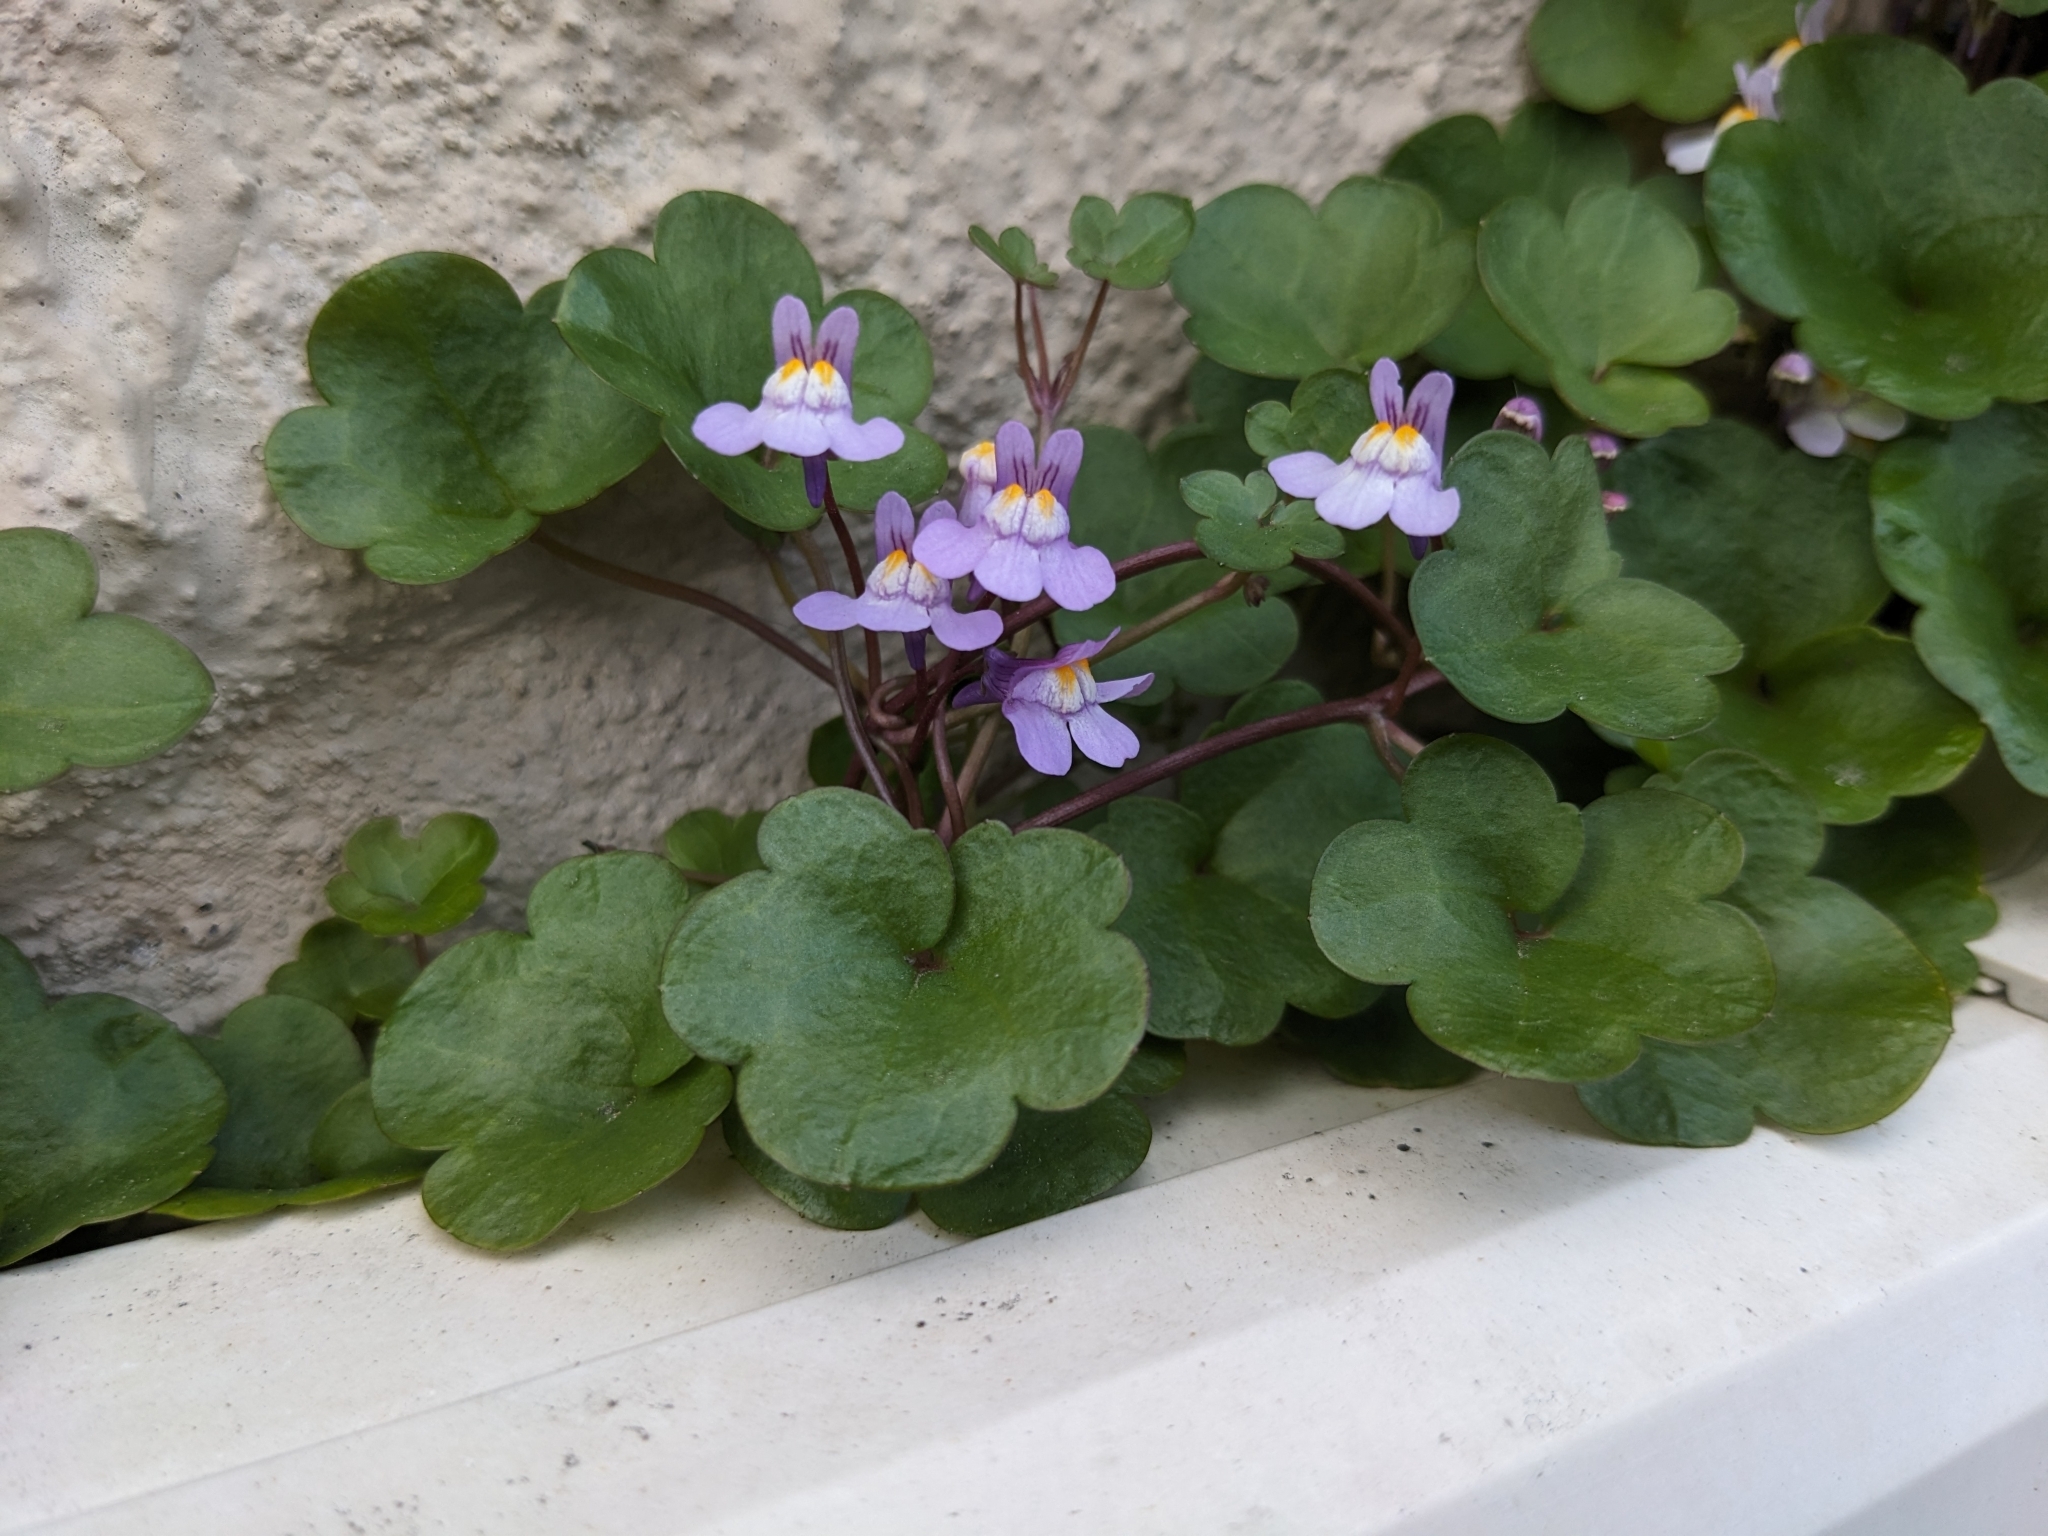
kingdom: Plantae
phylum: Tracheophyta
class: Magnoliopsida
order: Lamiales
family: Plantaginaceae
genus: Cymbalaria
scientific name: Cymbalaria muralis
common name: Ivy-leaved toadflax
